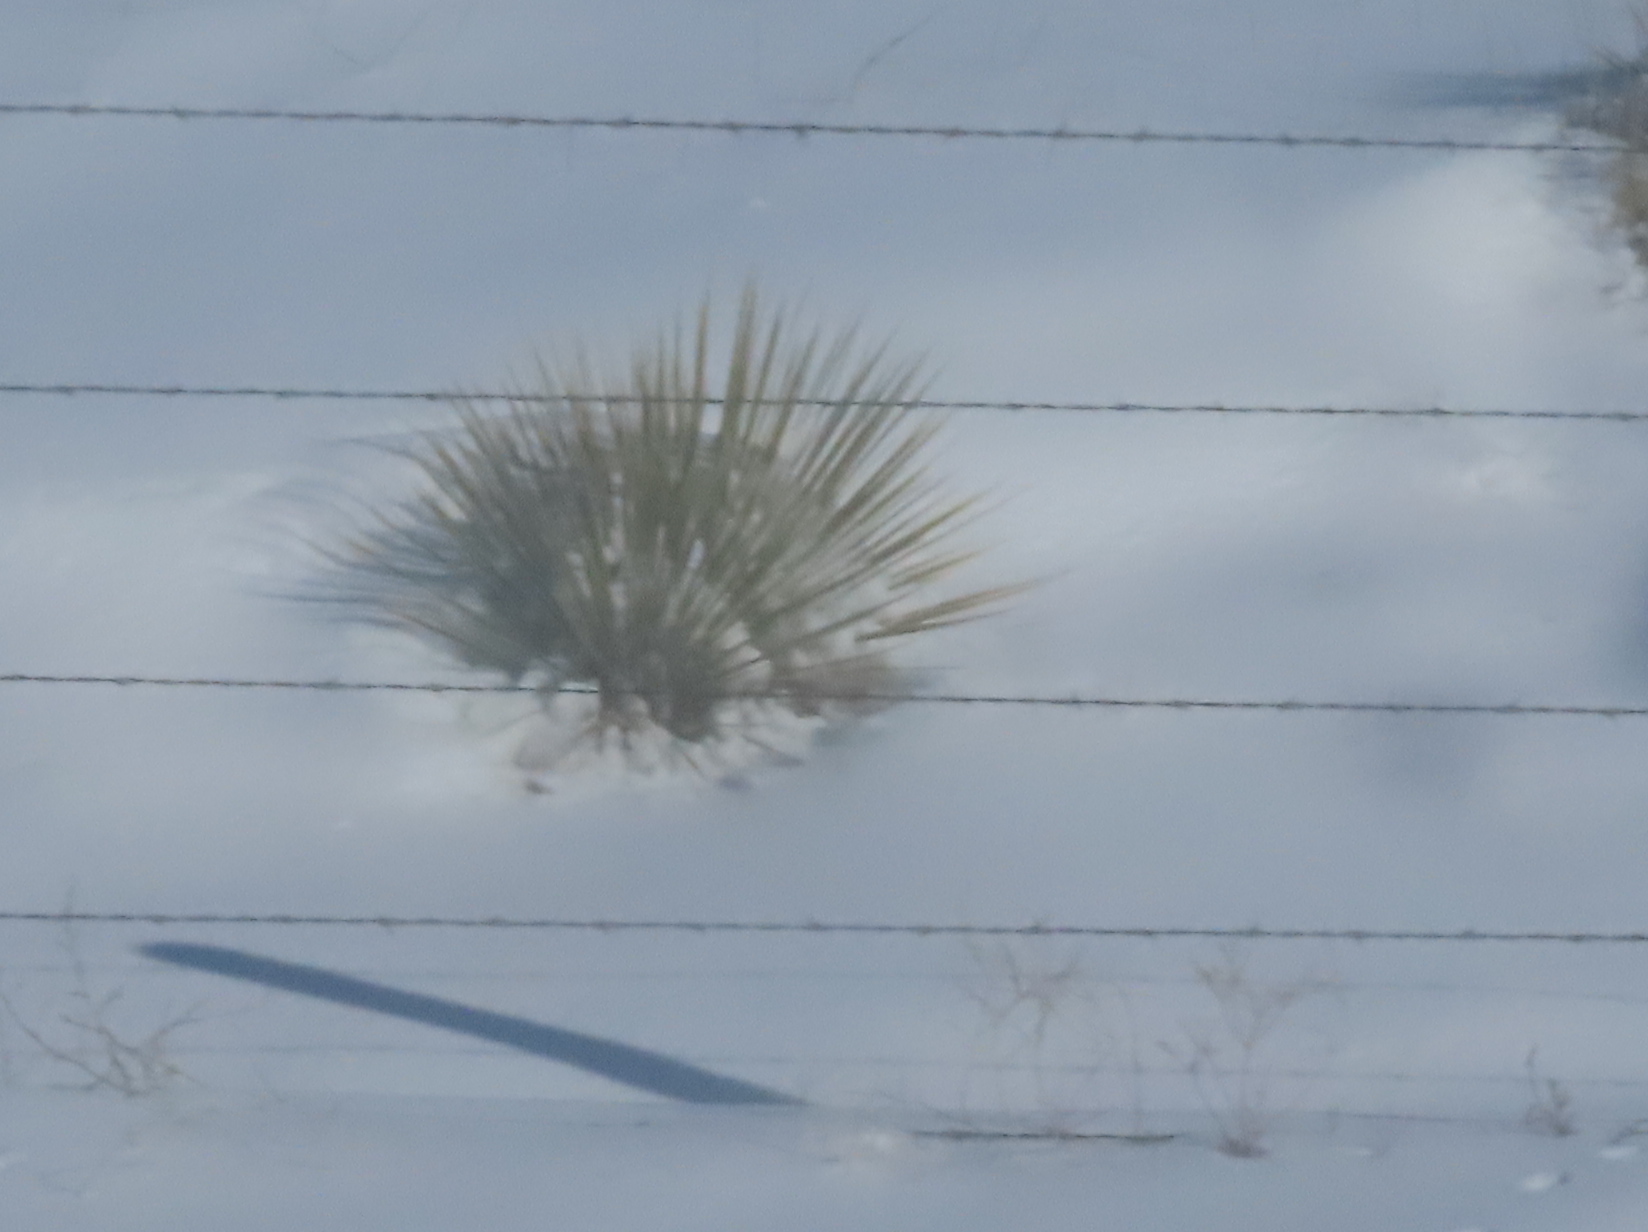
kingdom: Plantae
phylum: Tracheophyta
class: Liliopsida
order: Asparagales
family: Asparagaceae
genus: Yucca
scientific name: Yucca glauca
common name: Great plains yucca
